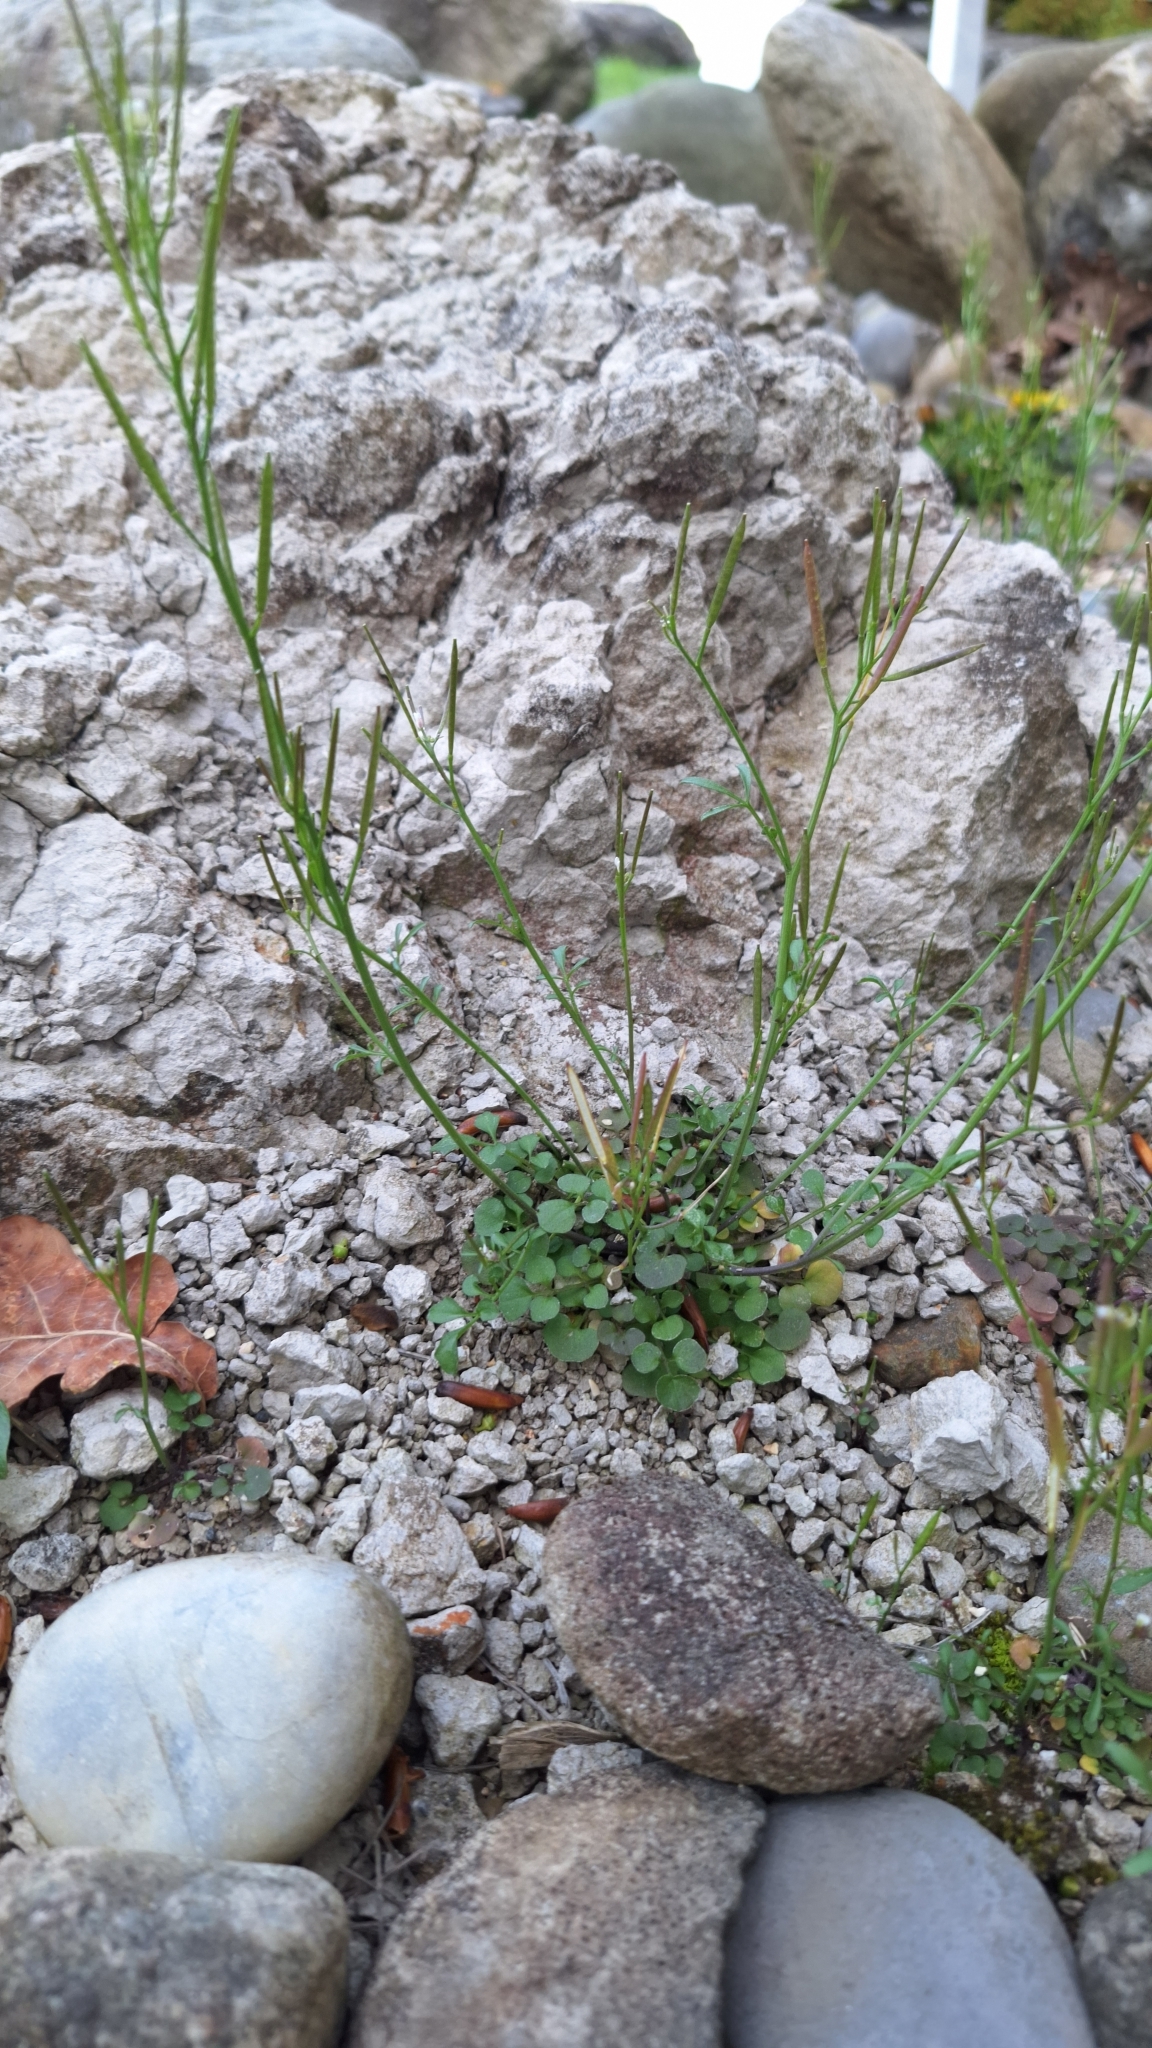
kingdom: Plantae
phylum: Tracheophyta
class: Magnoliopsida
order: Brassicales
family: Brassicaceae
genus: Cardamine
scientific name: Cardamine hirsuta
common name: Hairy bittercress
